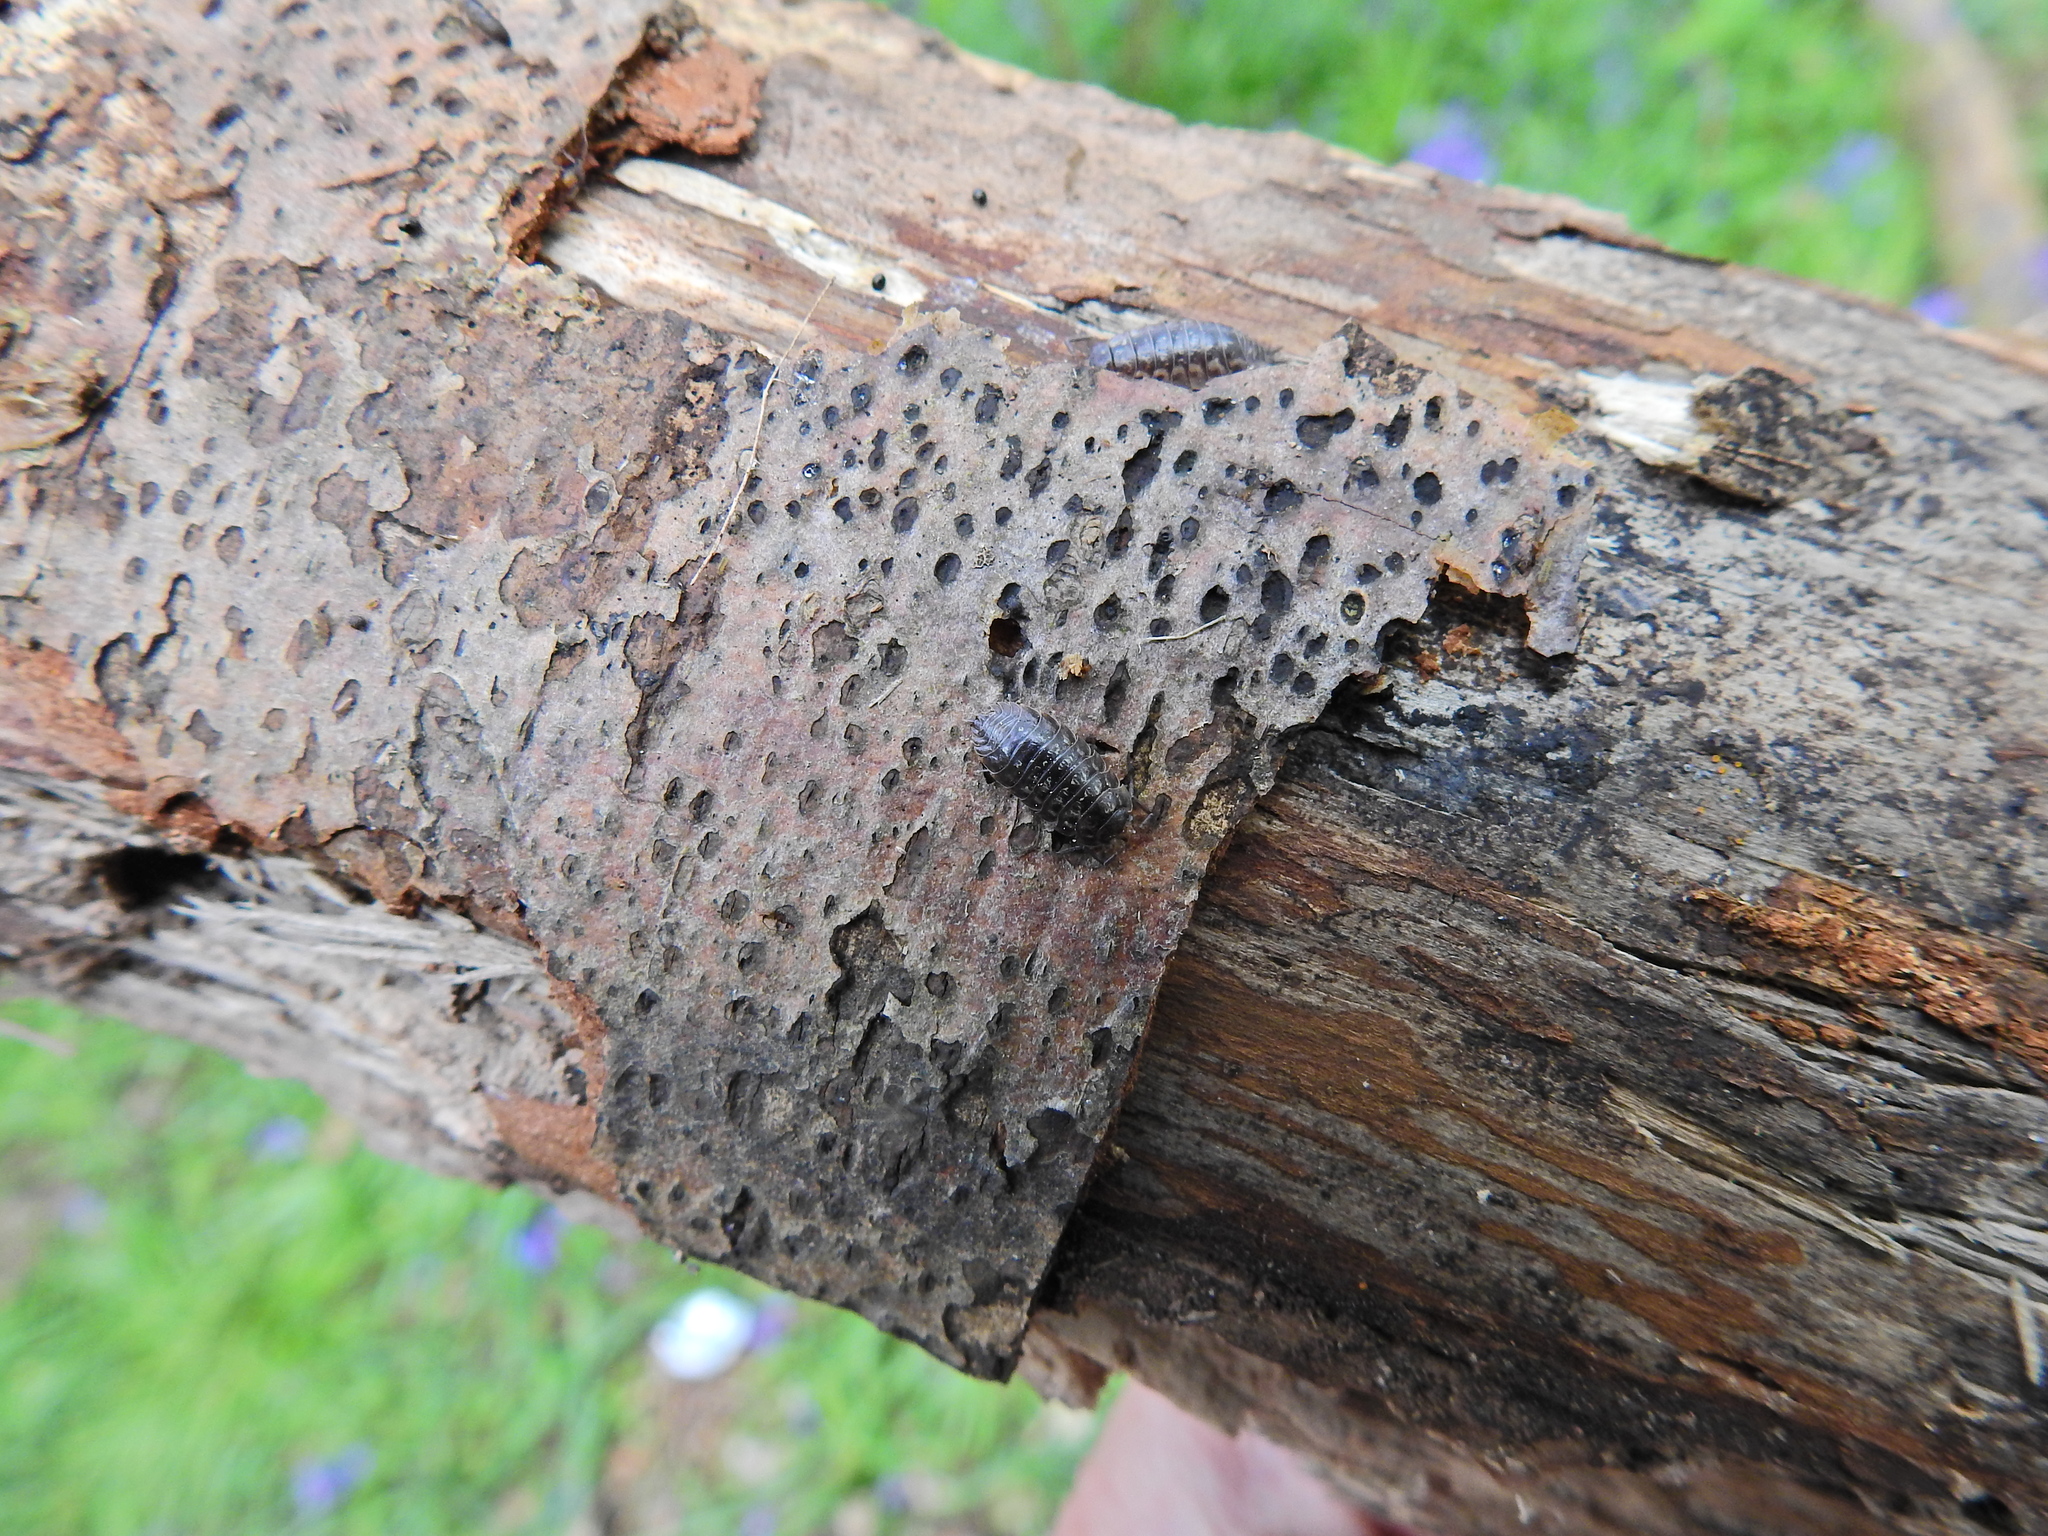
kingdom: Animalia
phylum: Arthropoda
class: Malacostraca
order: Isopoda
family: Oniscidae
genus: Oniscus
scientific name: Oniscus asellus
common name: Common shiny woodlouse
